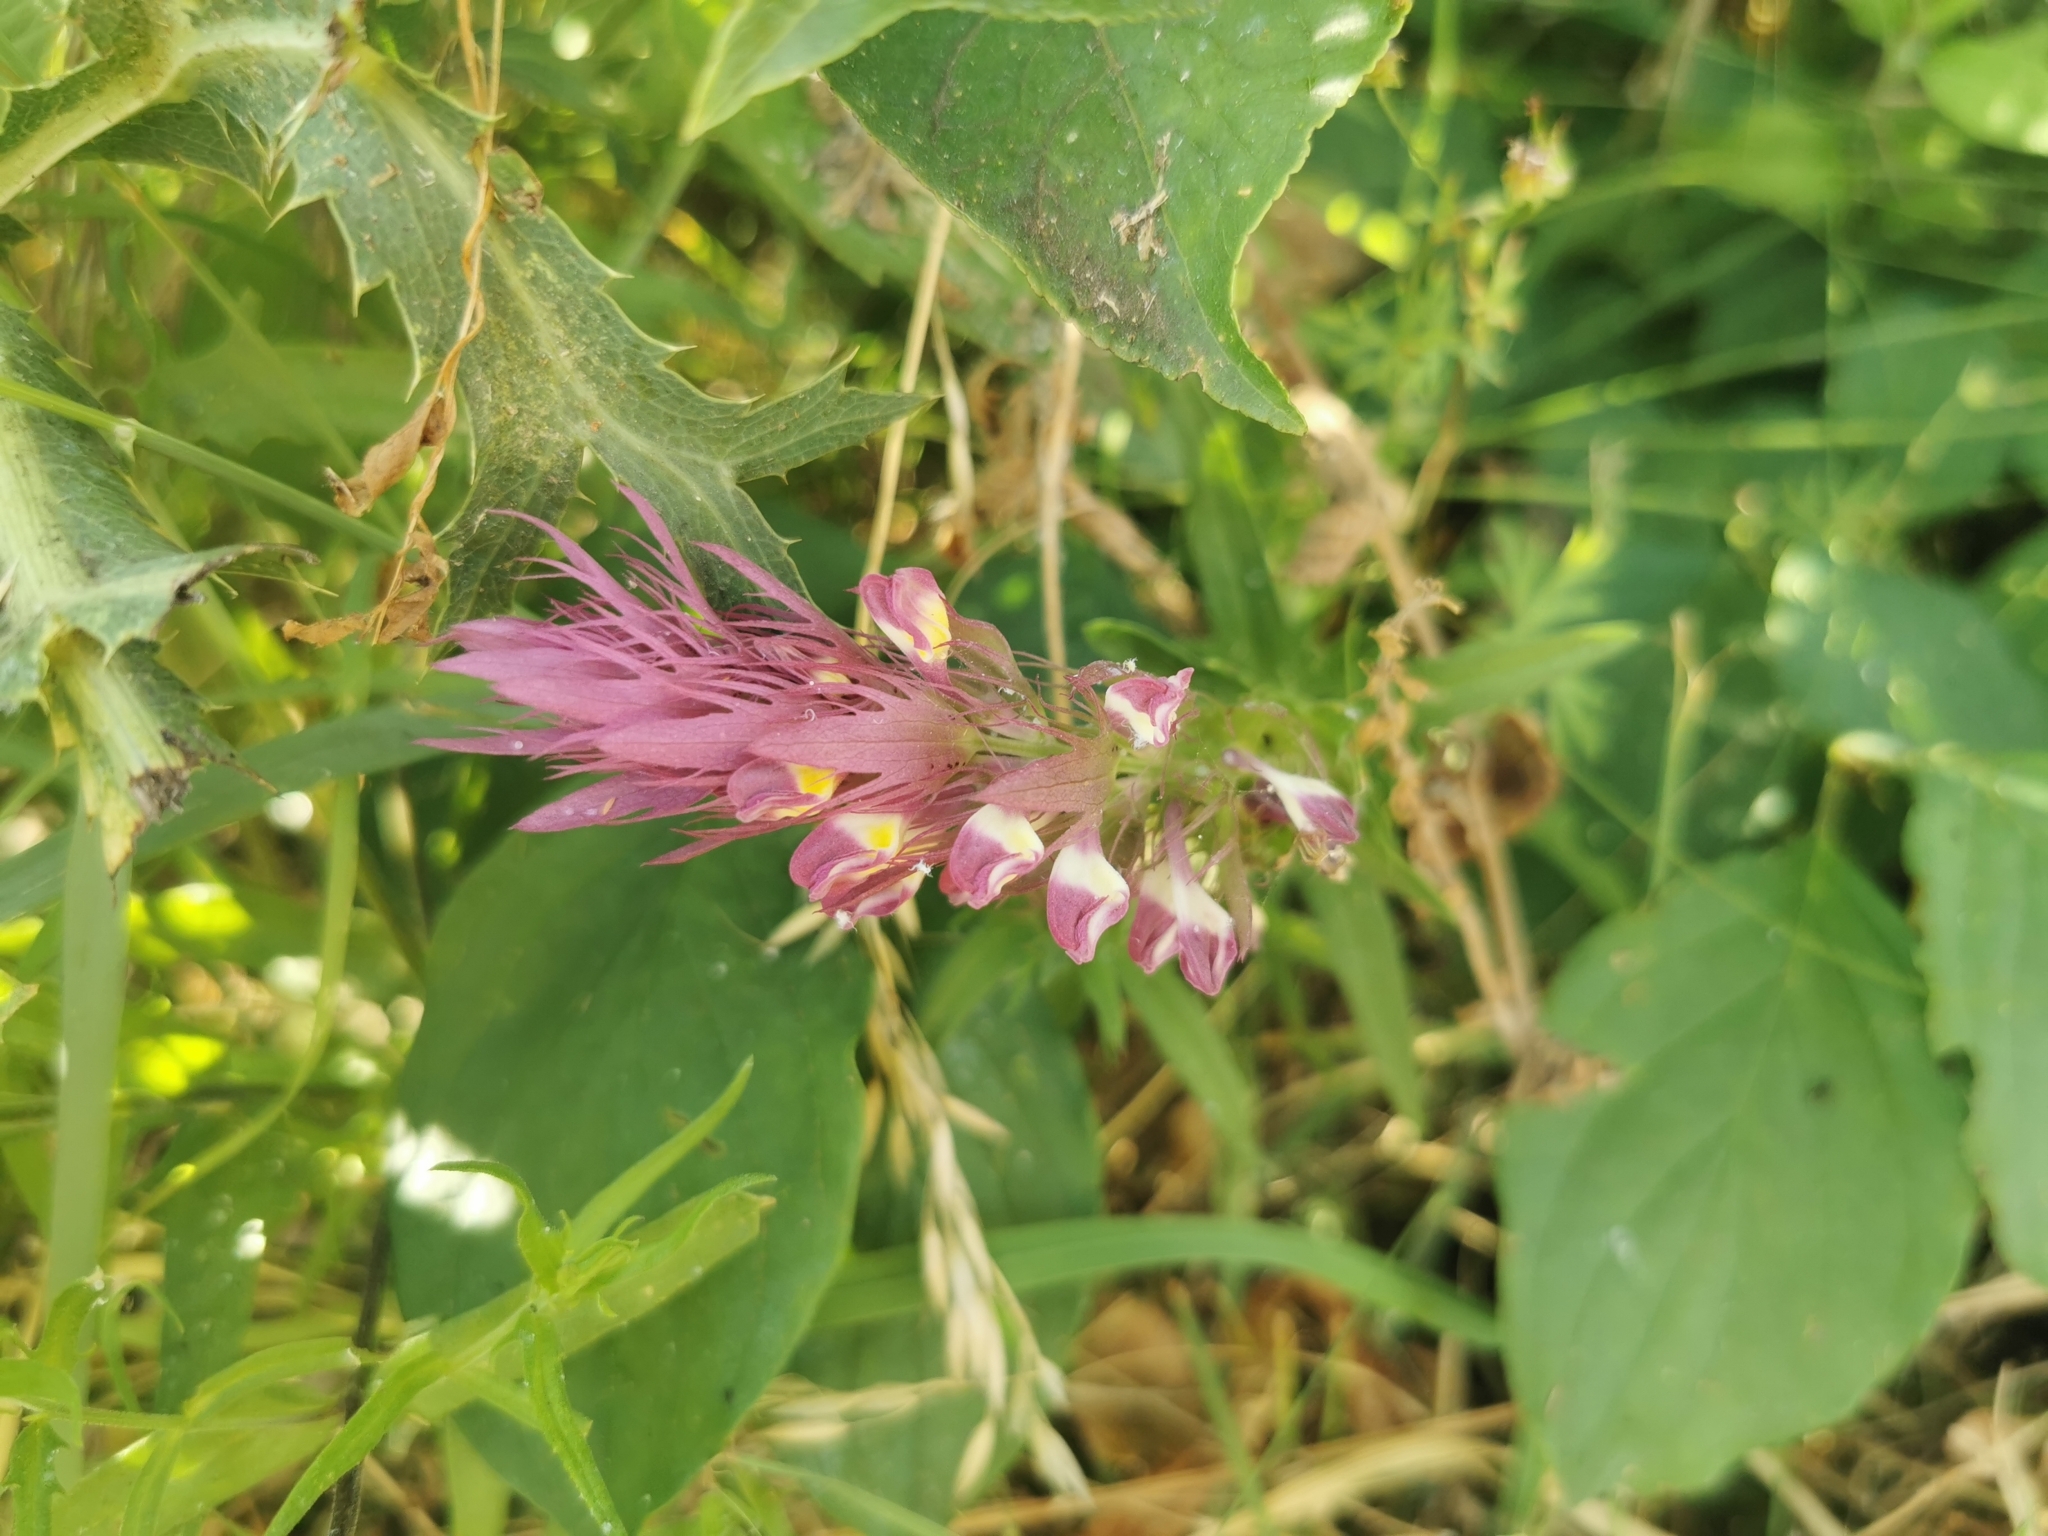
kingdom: Plantae
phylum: Tracheophyta
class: Magnoliopsida
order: Lamiales
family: Orobanchaceae
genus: Melampyrum
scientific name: Melampyrum arvense
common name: Field cow-wheat
